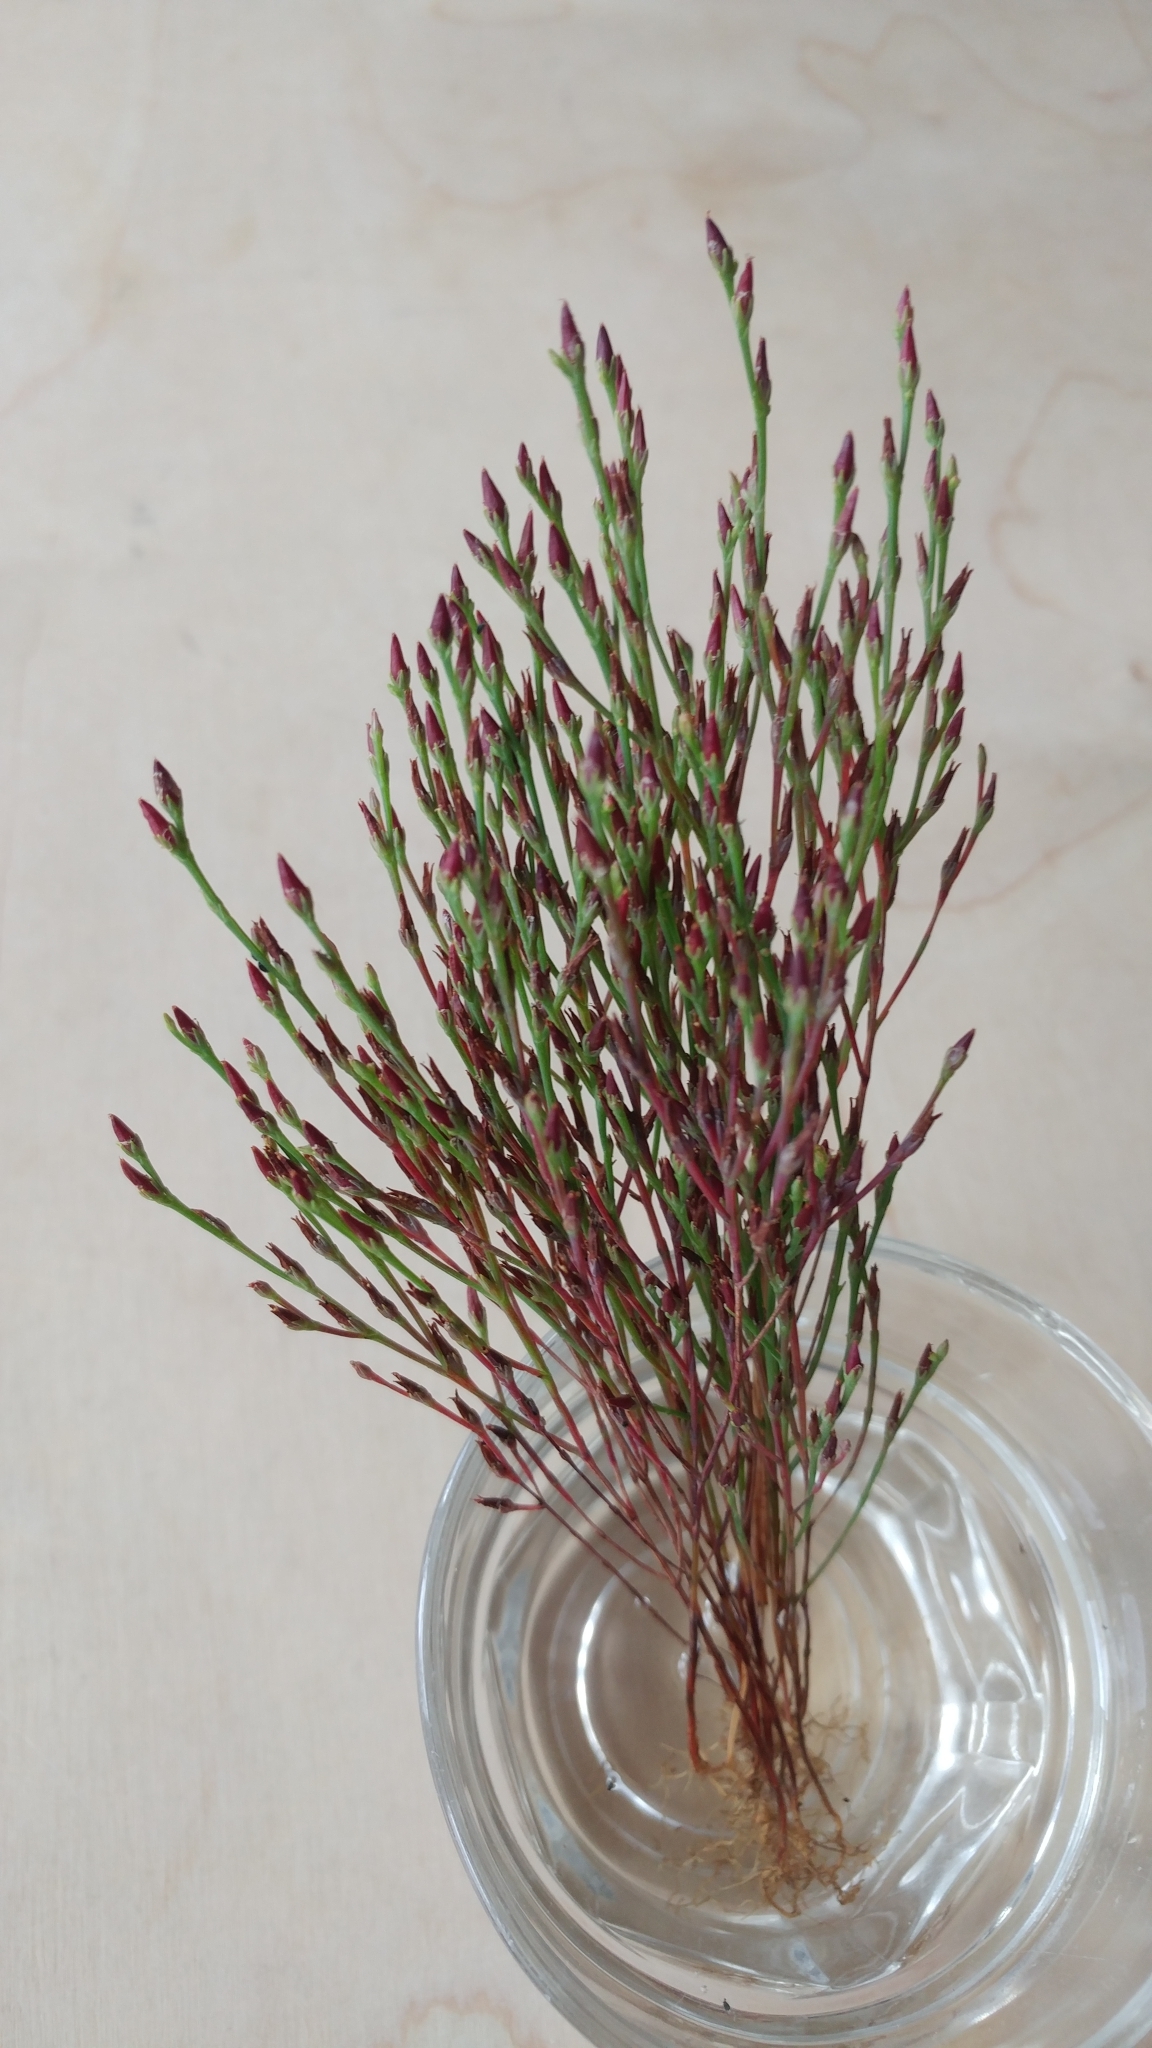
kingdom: Plantae
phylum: Tracheophyta
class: Magnoliopsida
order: Malpighiales
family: Hypericaceae
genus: Hypericum
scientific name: Hypericum gentianoides
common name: Gentian-leaved st. john's-wort
